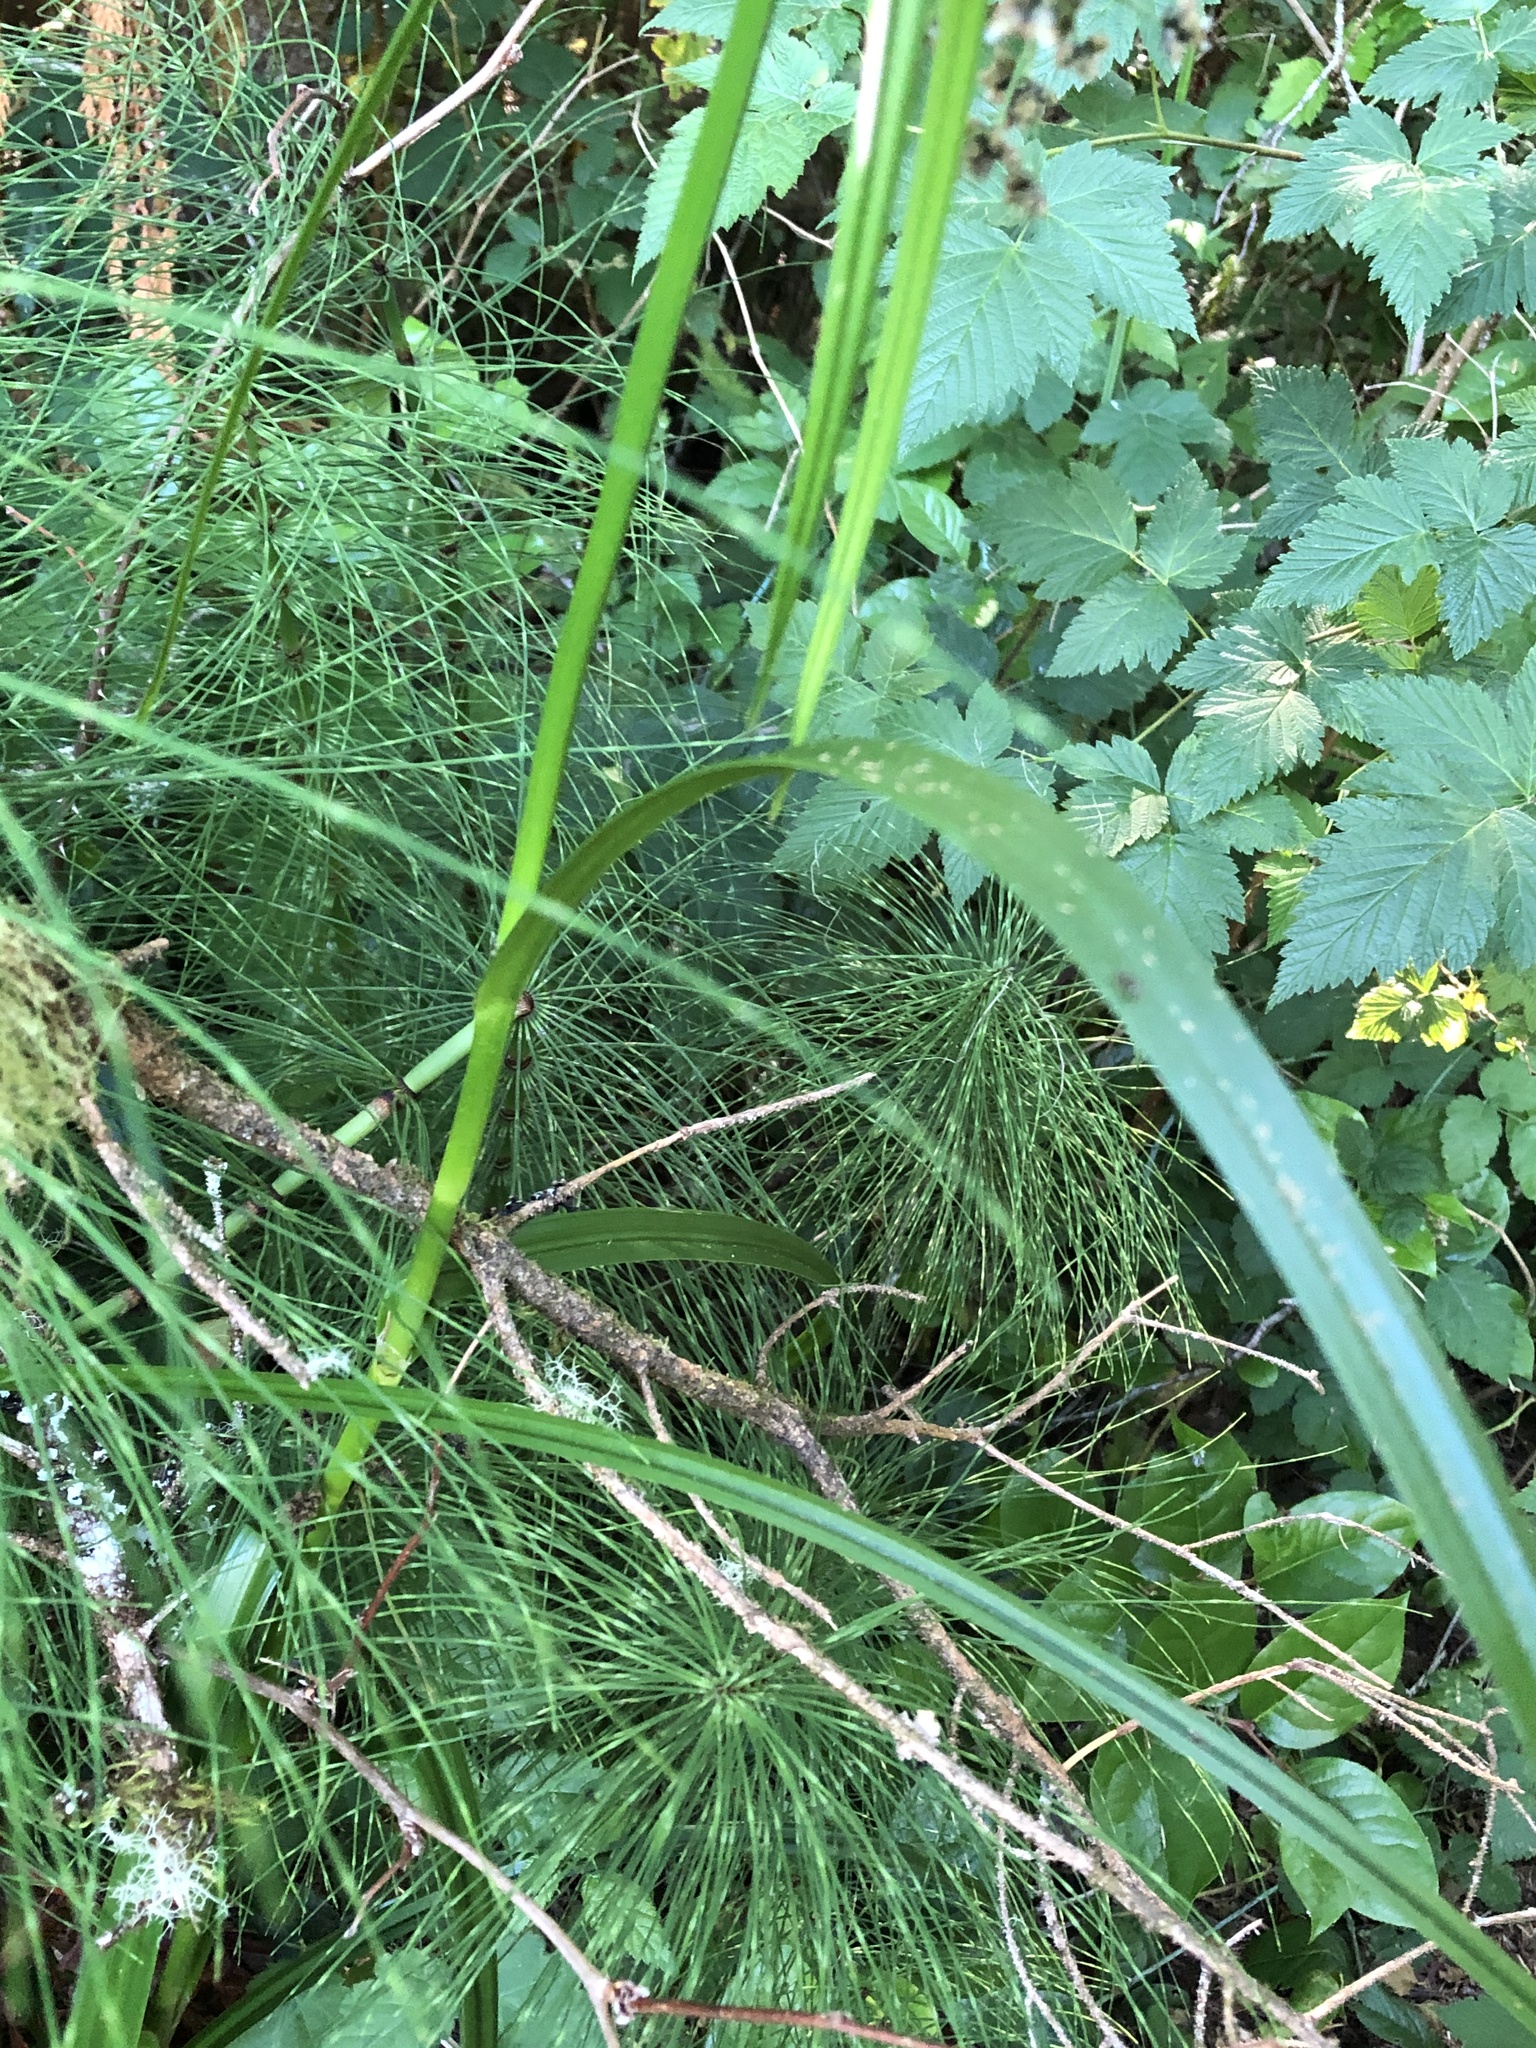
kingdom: Plantae
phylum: Tracheophyta
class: Liliopsida
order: Poales
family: Cyperaceae
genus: Scirpus
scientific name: Scirpus microcarpus
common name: Panicled bulrush
